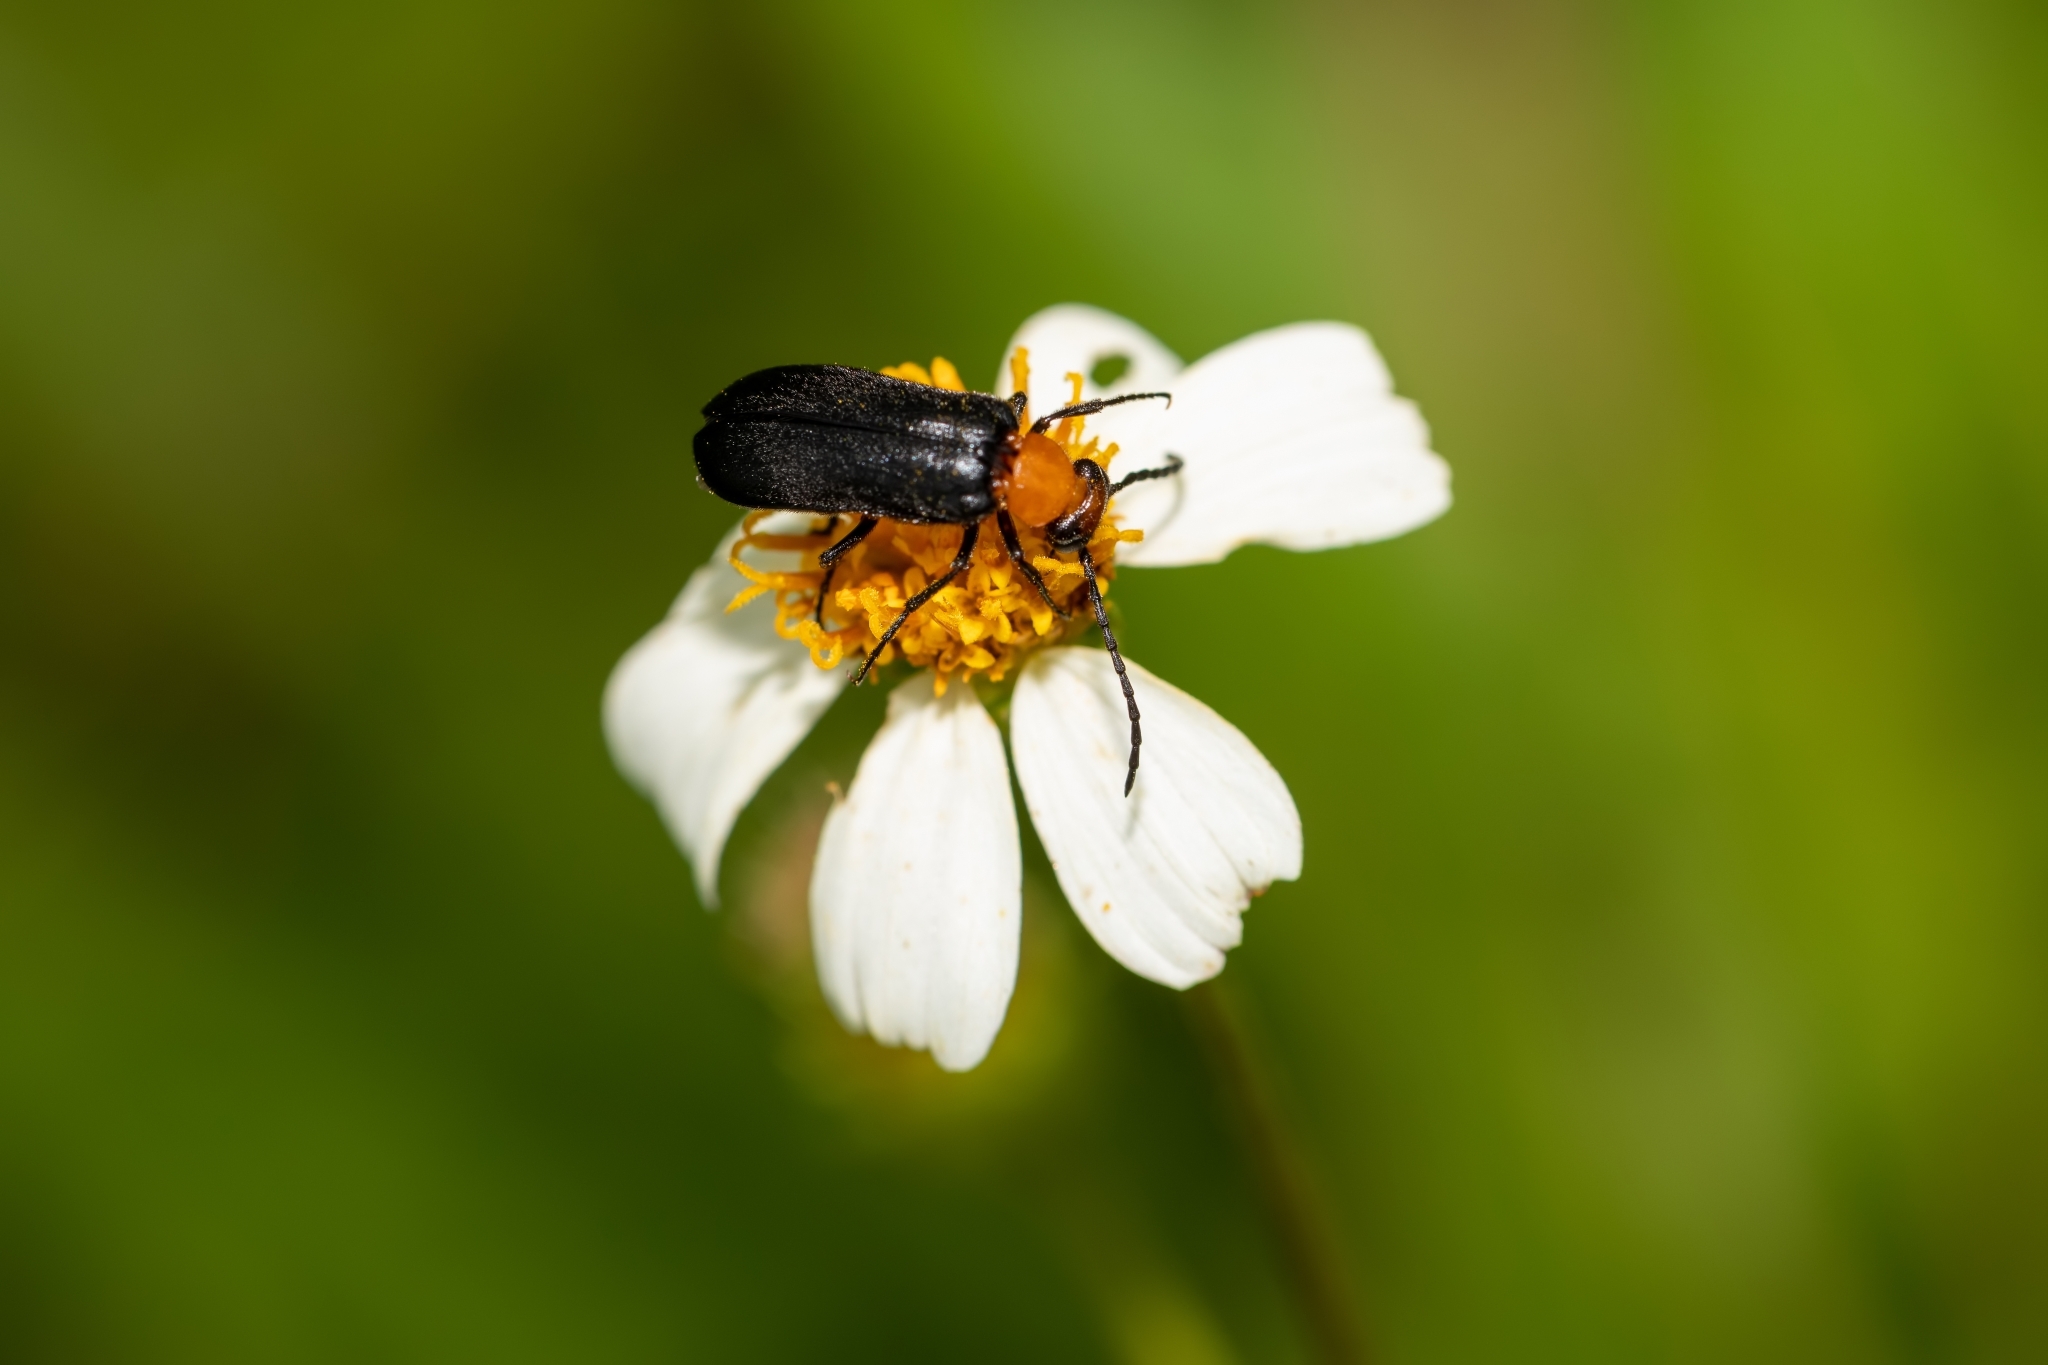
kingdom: Animalia
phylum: Arthropoda
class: Insecta
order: Coleoptera
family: Meloidae
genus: Nemognatha
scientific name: Nemognatha nemorensis
